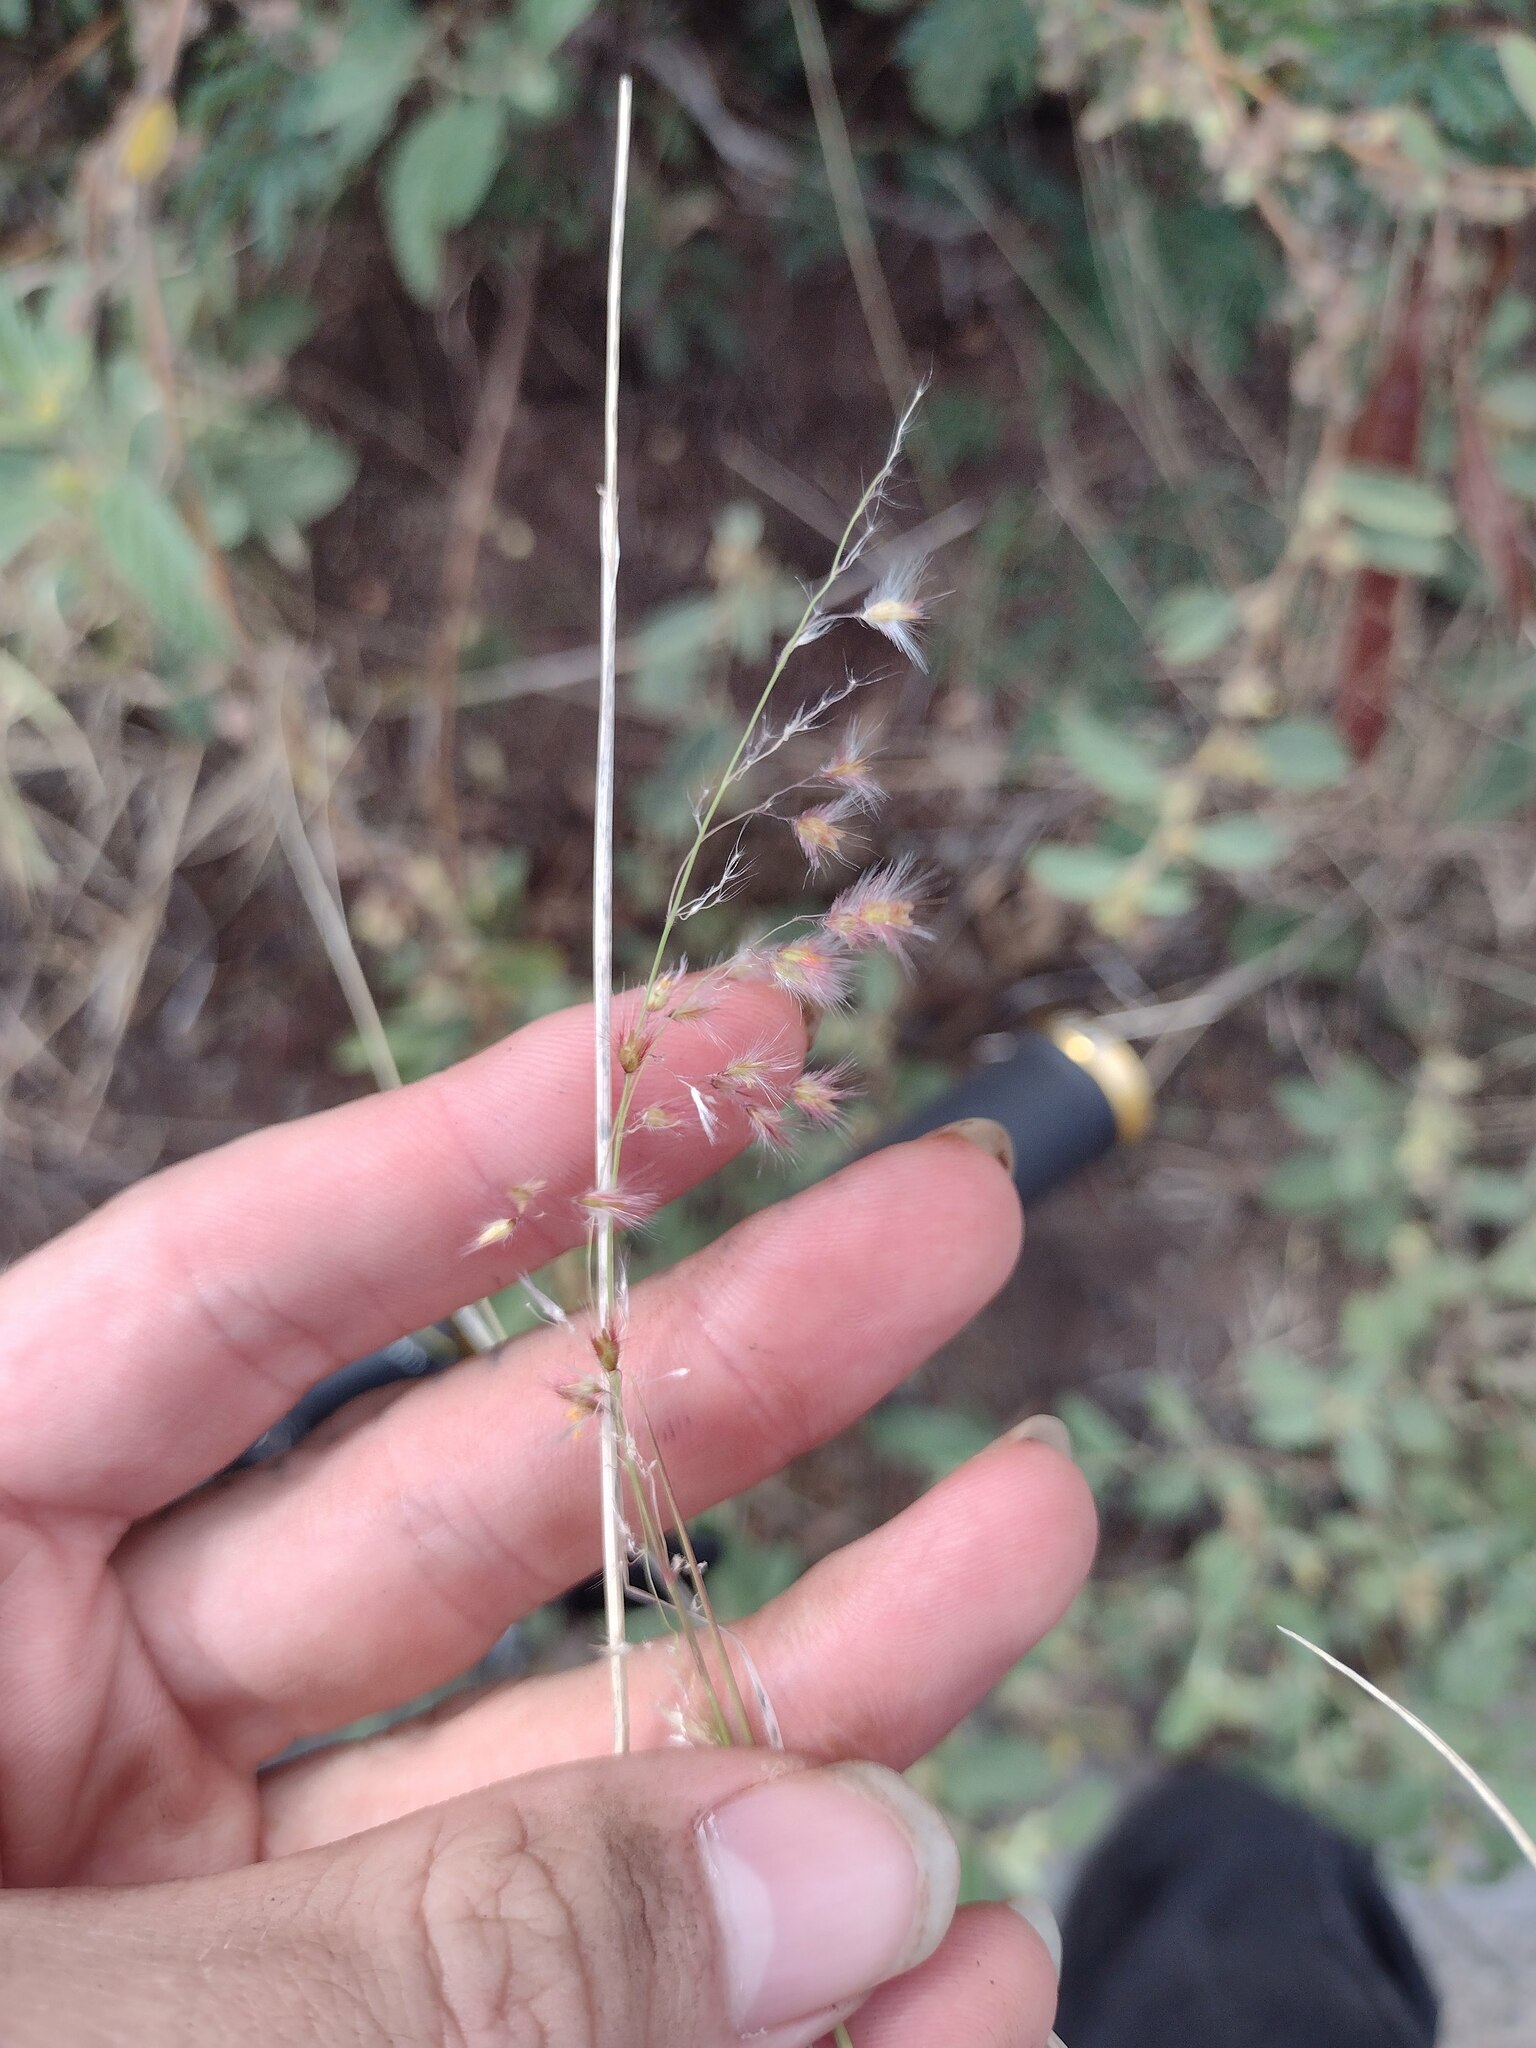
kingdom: Plantae
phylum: Tracheophyta
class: Liliopsida
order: Poales
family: Poaceae
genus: Melinis
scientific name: Melinis repens
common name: Rose natal grass
